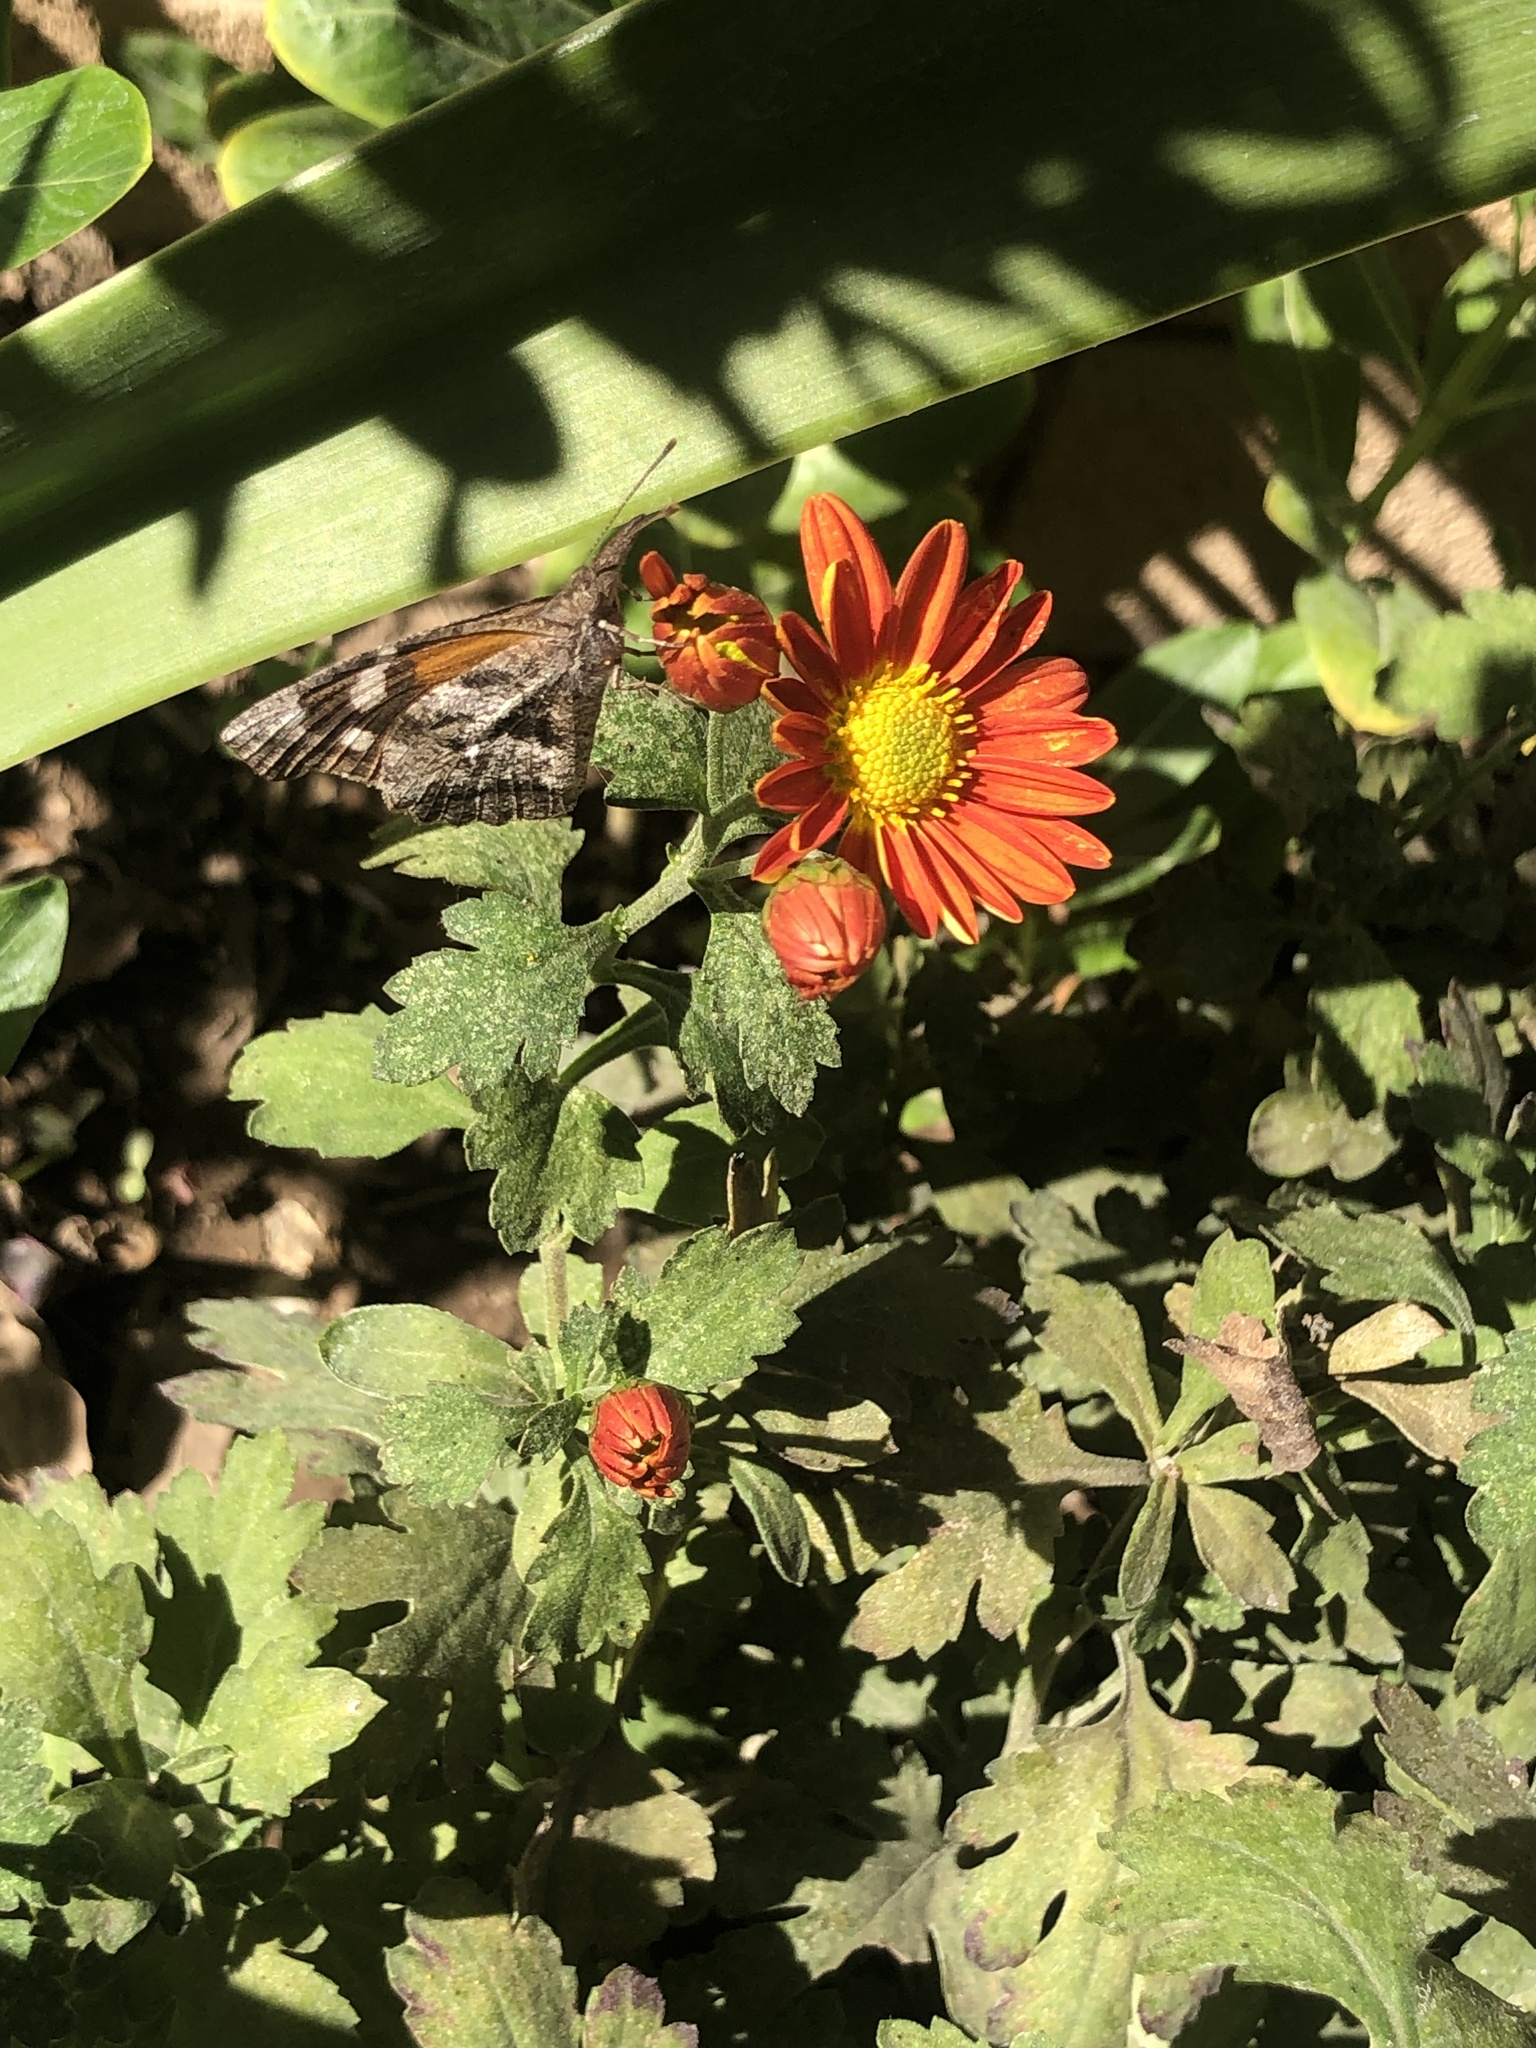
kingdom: Animalia
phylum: Arthropoda
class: Insecta
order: Lepidoptera
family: Nymphalidae
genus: Libytheana
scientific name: Libytheana carinenta
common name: American snout
